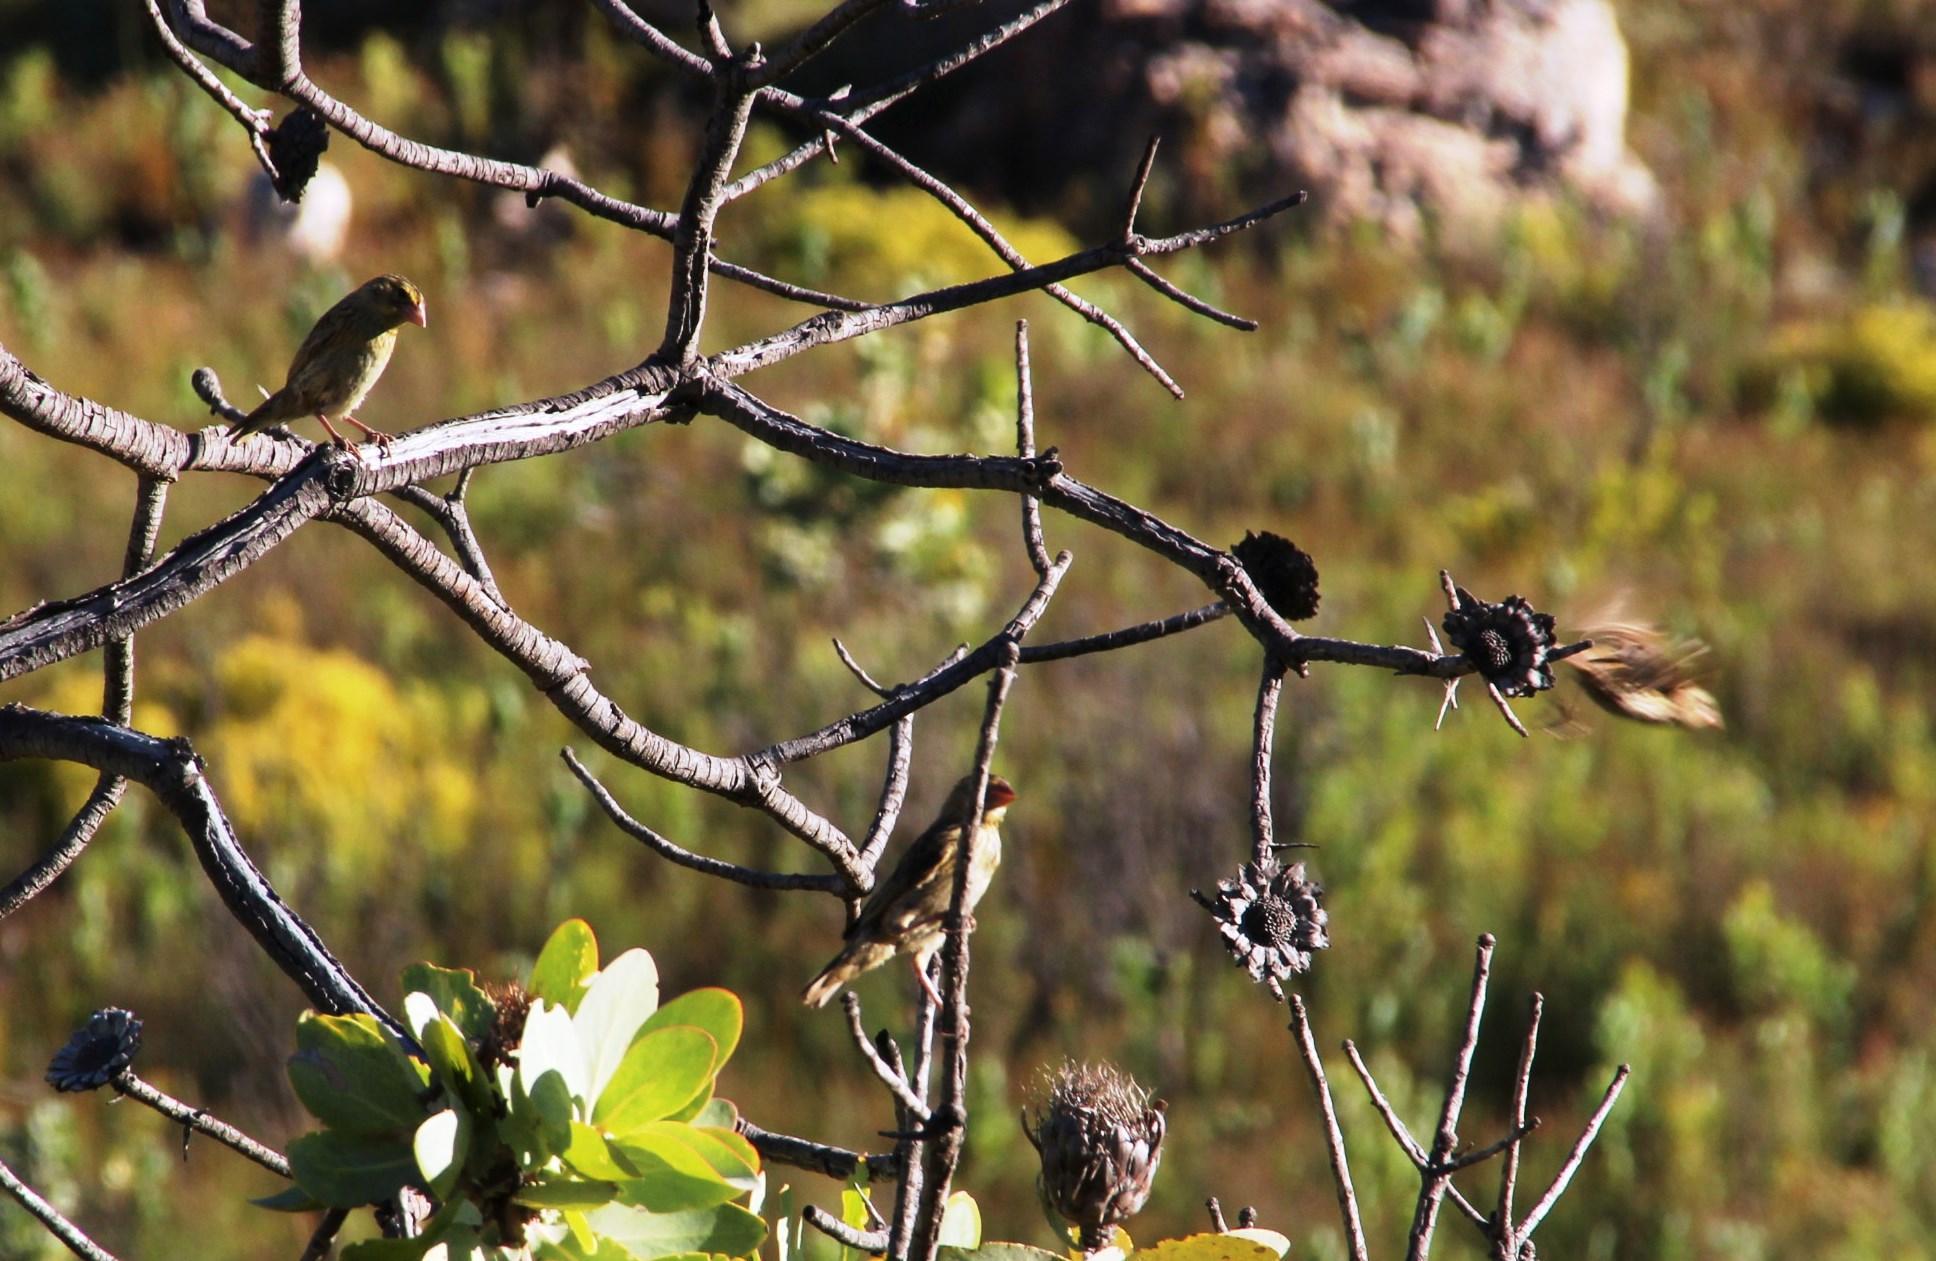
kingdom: Plantae
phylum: Tracheophyta
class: Magnoliopsida
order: Proteales
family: Proteaceae
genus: Protea
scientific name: Protea nitida
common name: Tree protea
